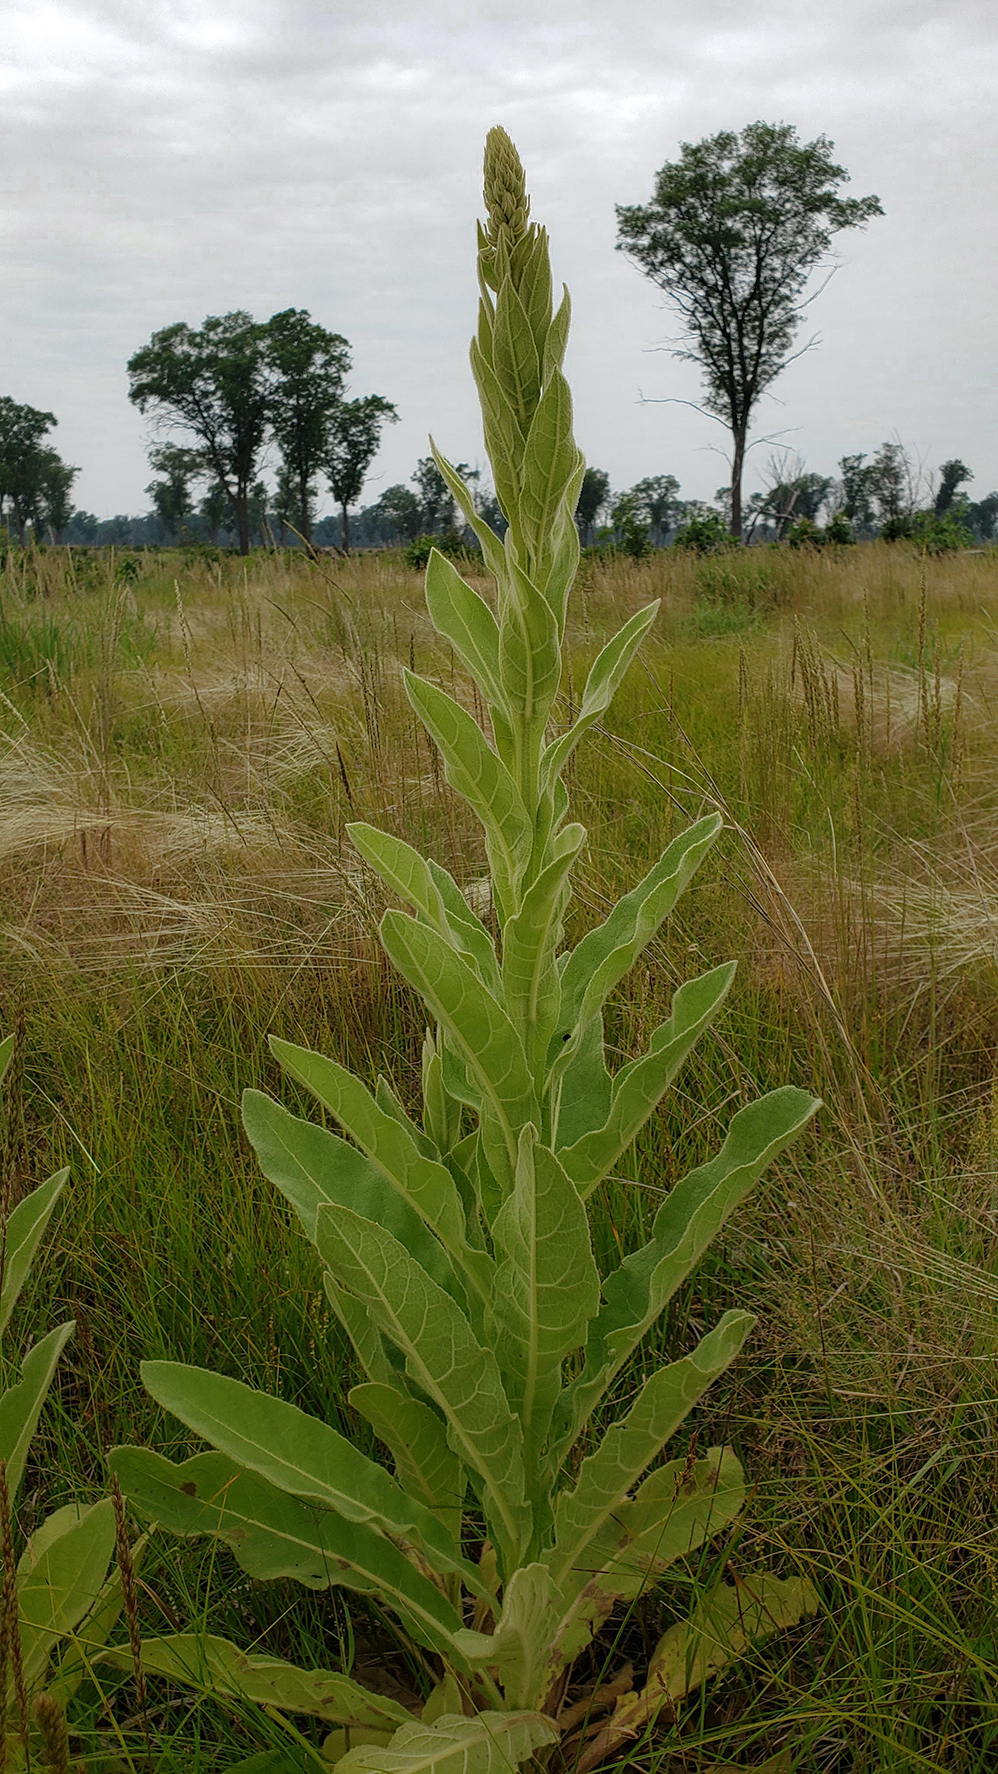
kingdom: Plantae
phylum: Tracheophyta
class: Magnoliopsida
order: Lamiales
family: Scrophulariaceae
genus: Verbascum
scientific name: Verbascum thapsus
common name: Common mullein
